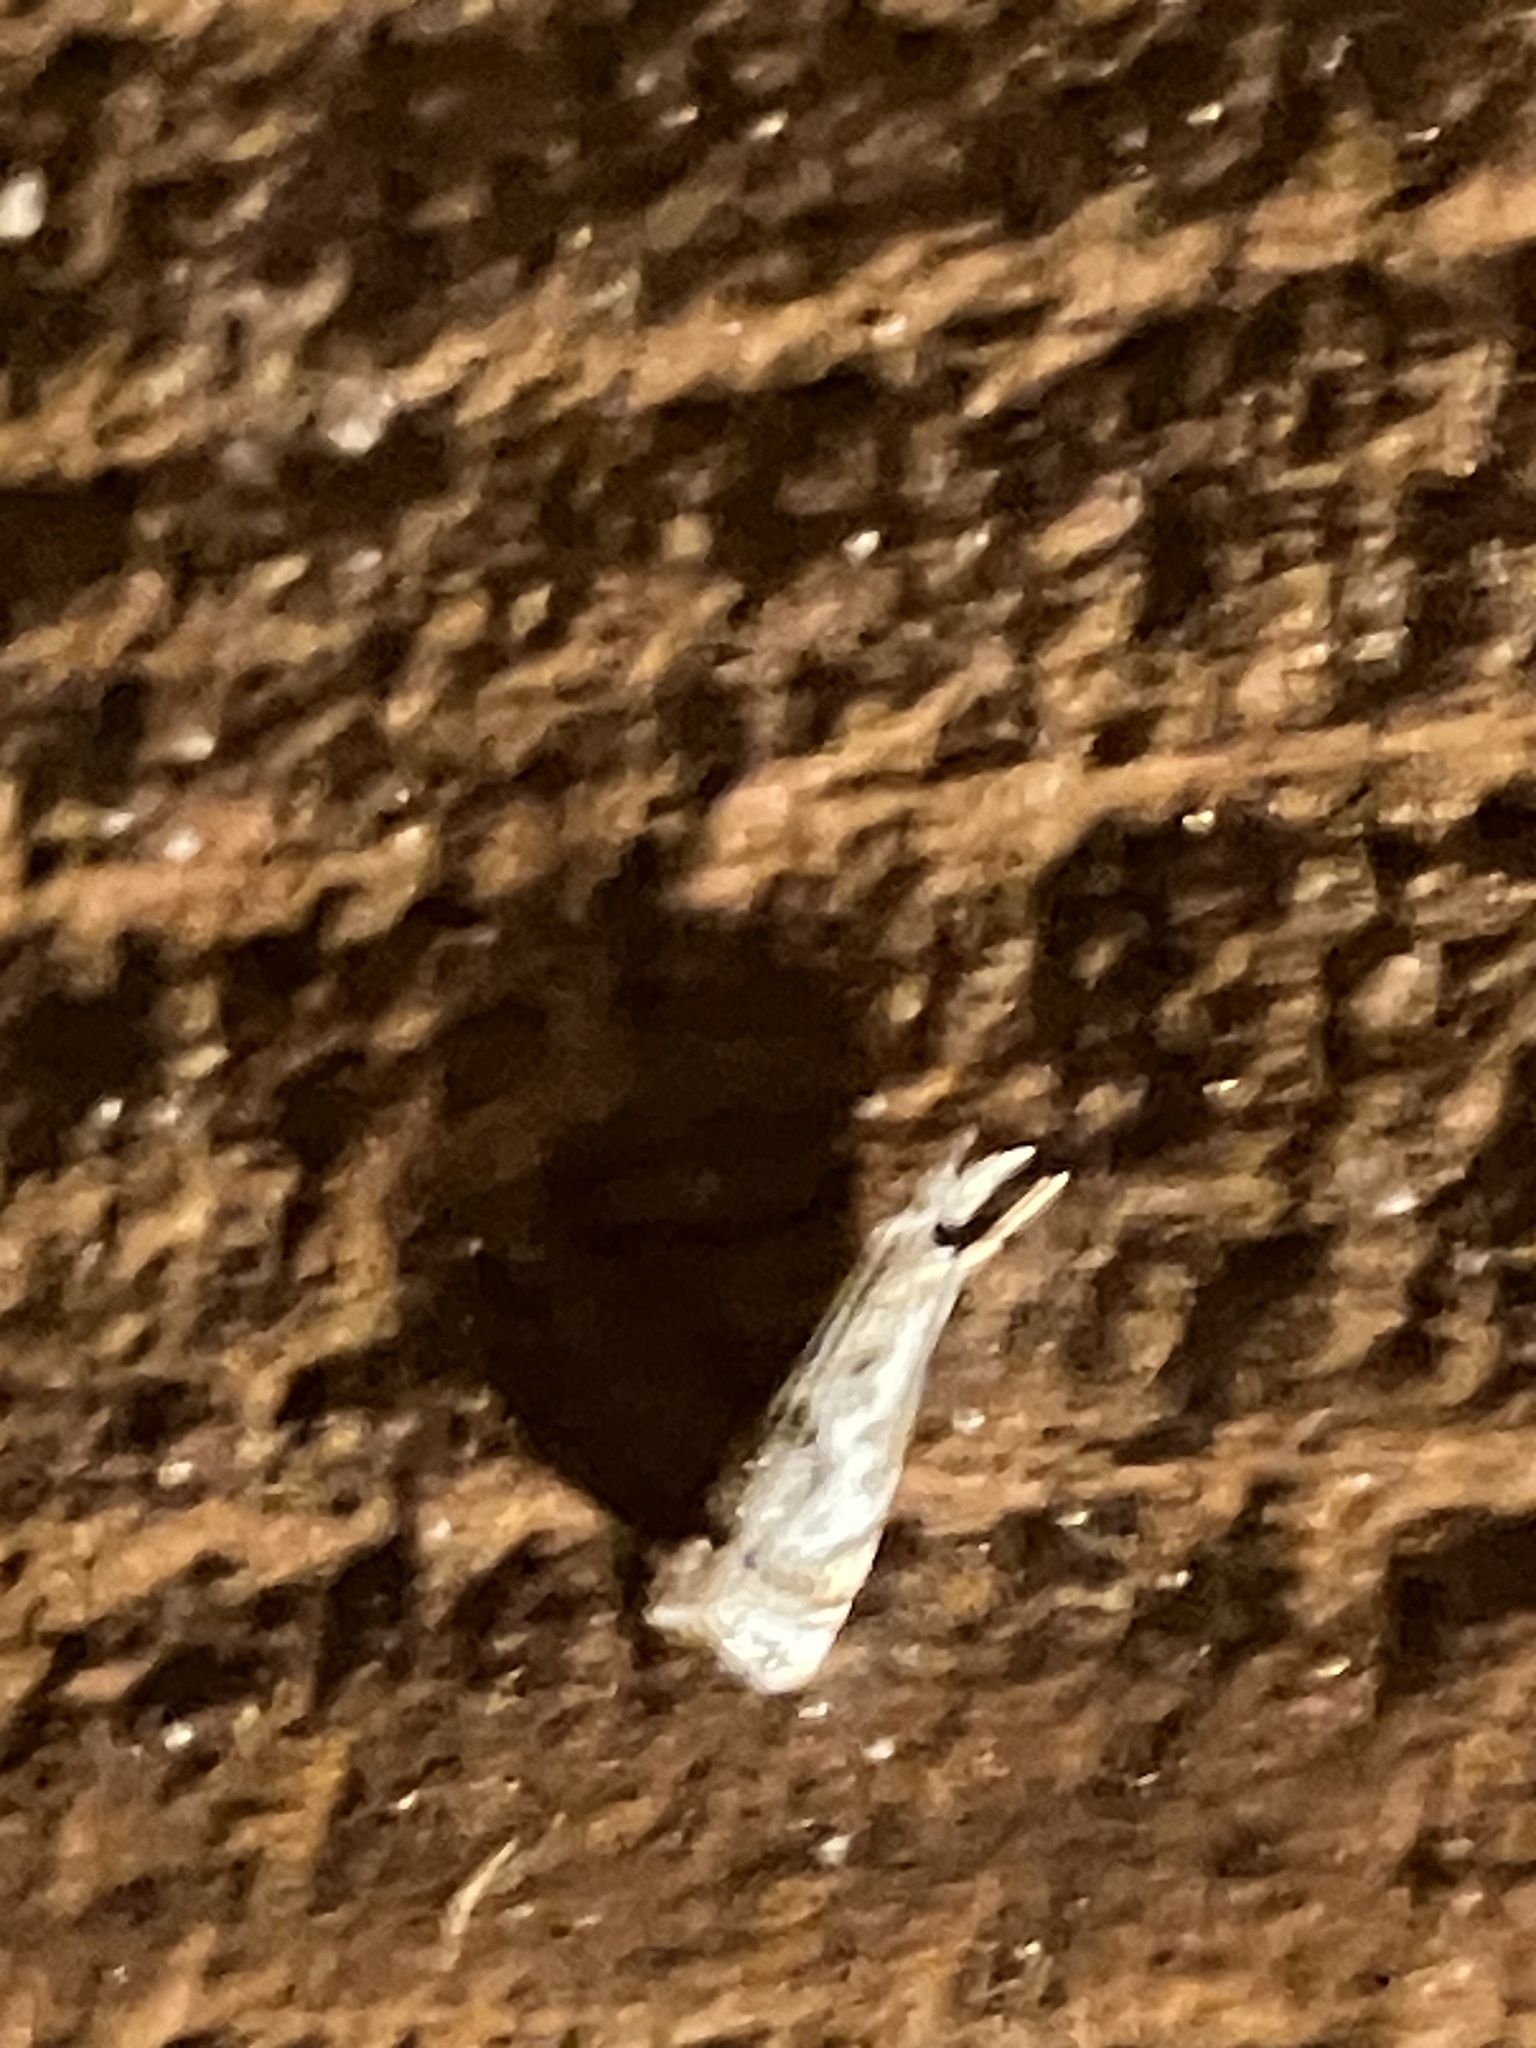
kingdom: Animalia
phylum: Arthropoda
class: Insecta
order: Lepidoptera
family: Crambidae
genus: Microcrambus
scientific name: Microcrambus elegans
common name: Elegant grass-veneer
